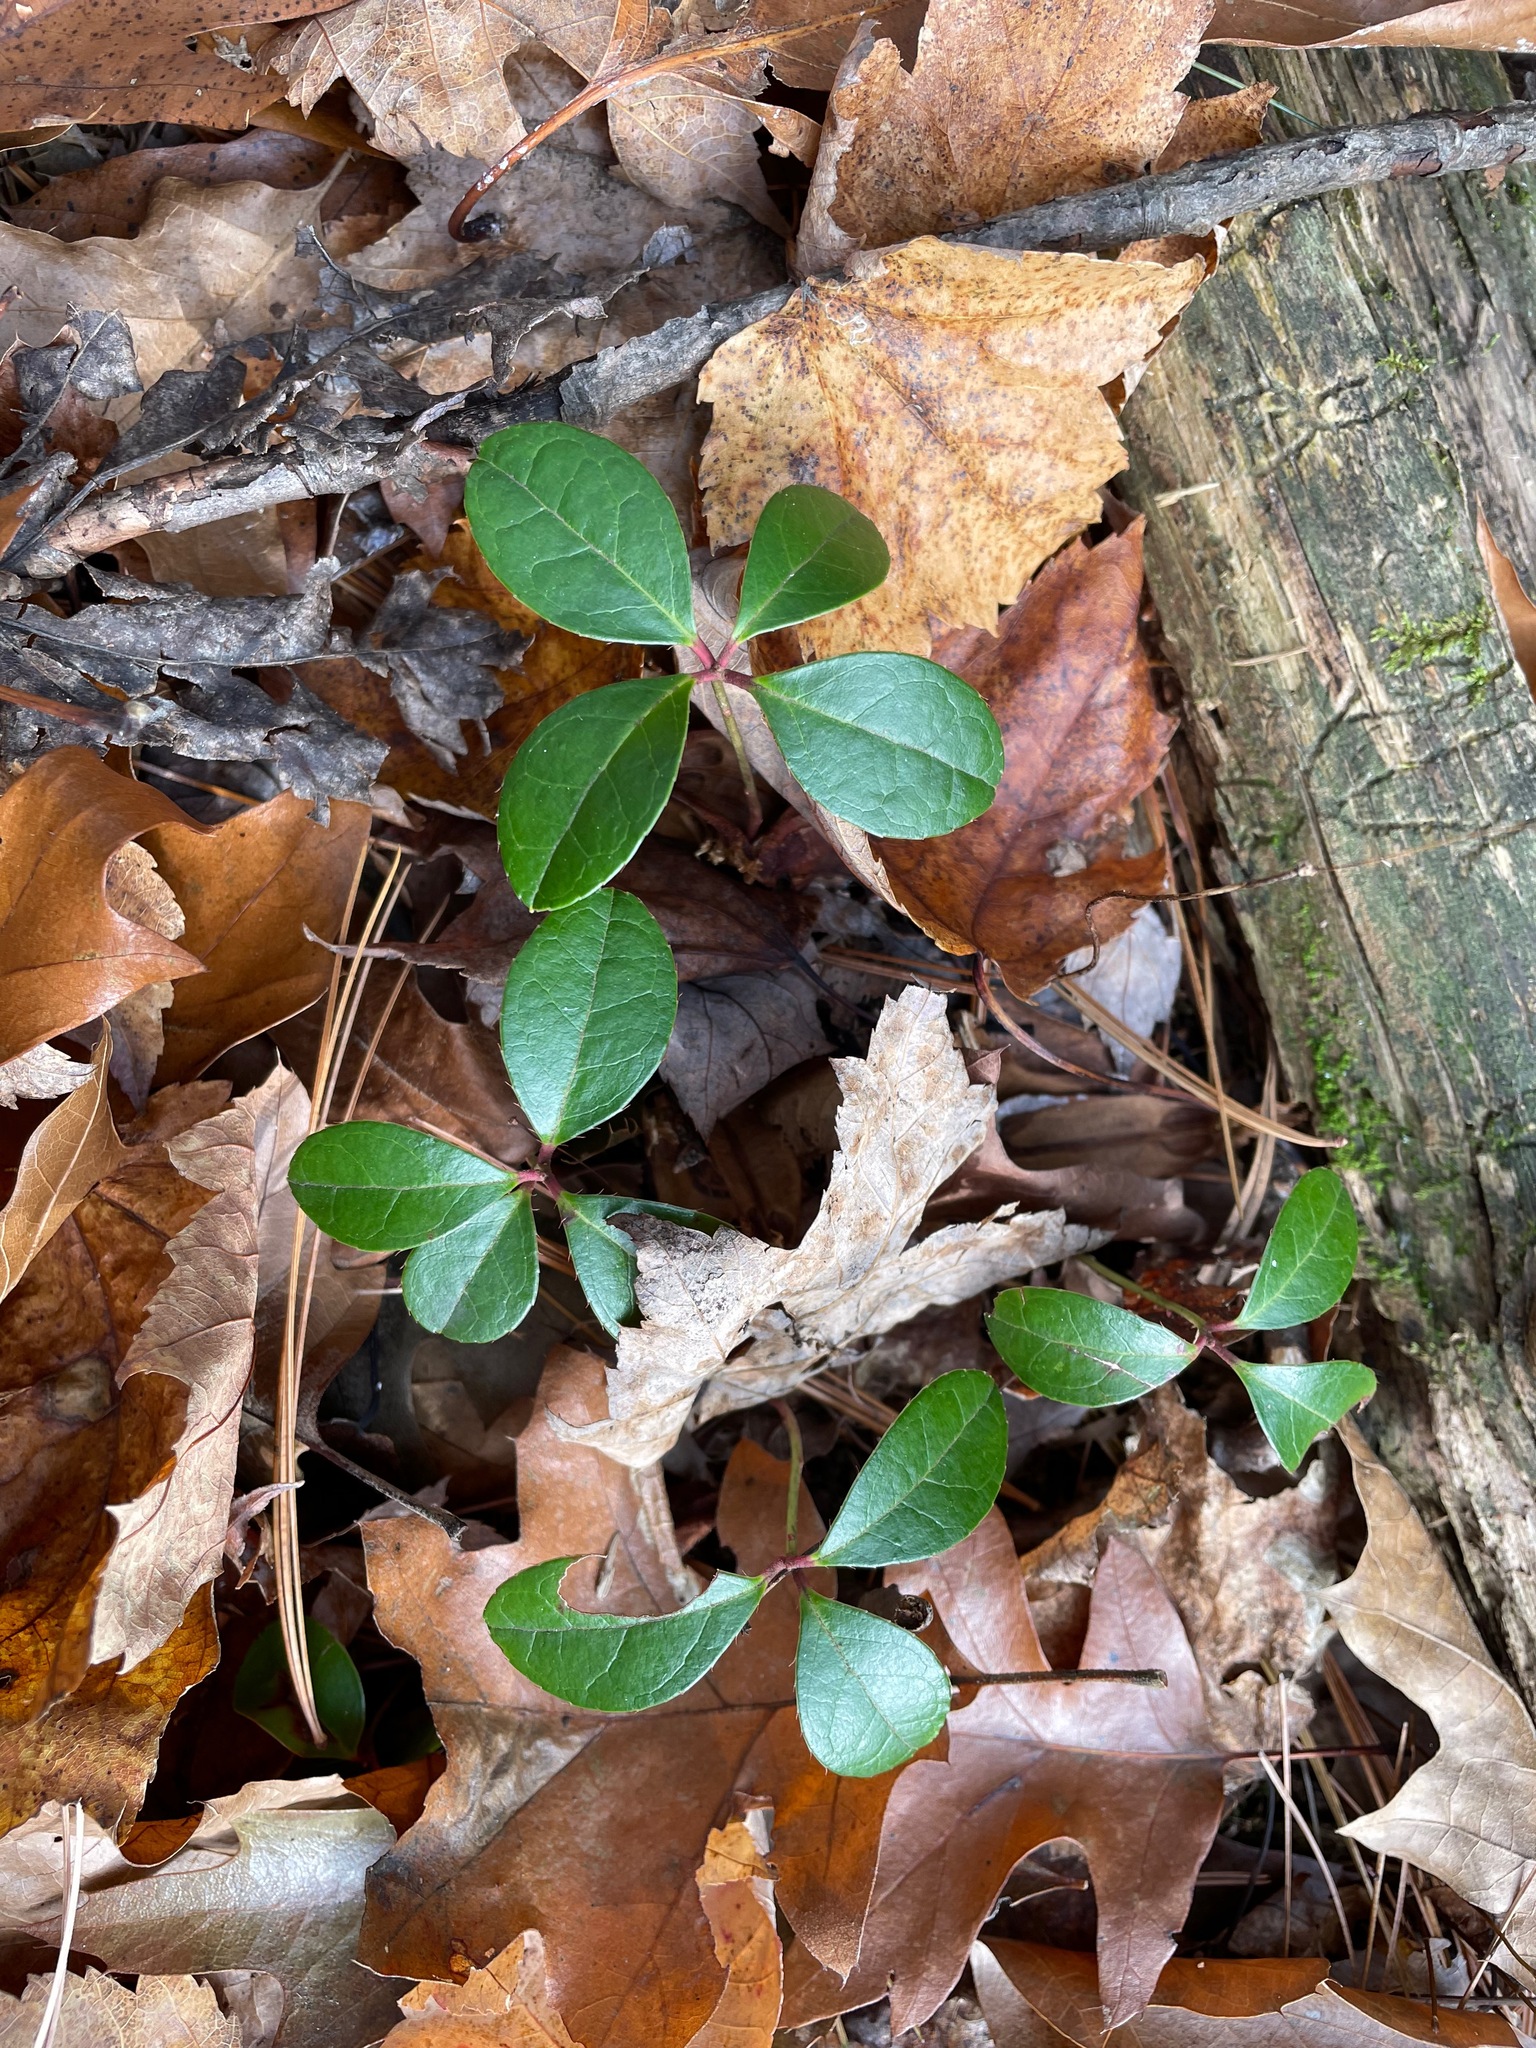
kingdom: Plantae
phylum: Tracheophyta
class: Magnoliopsida
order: Ericales
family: Ericaceae
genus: Gaultheria
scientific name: Gaultheria procumbens
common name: Checkerberry
